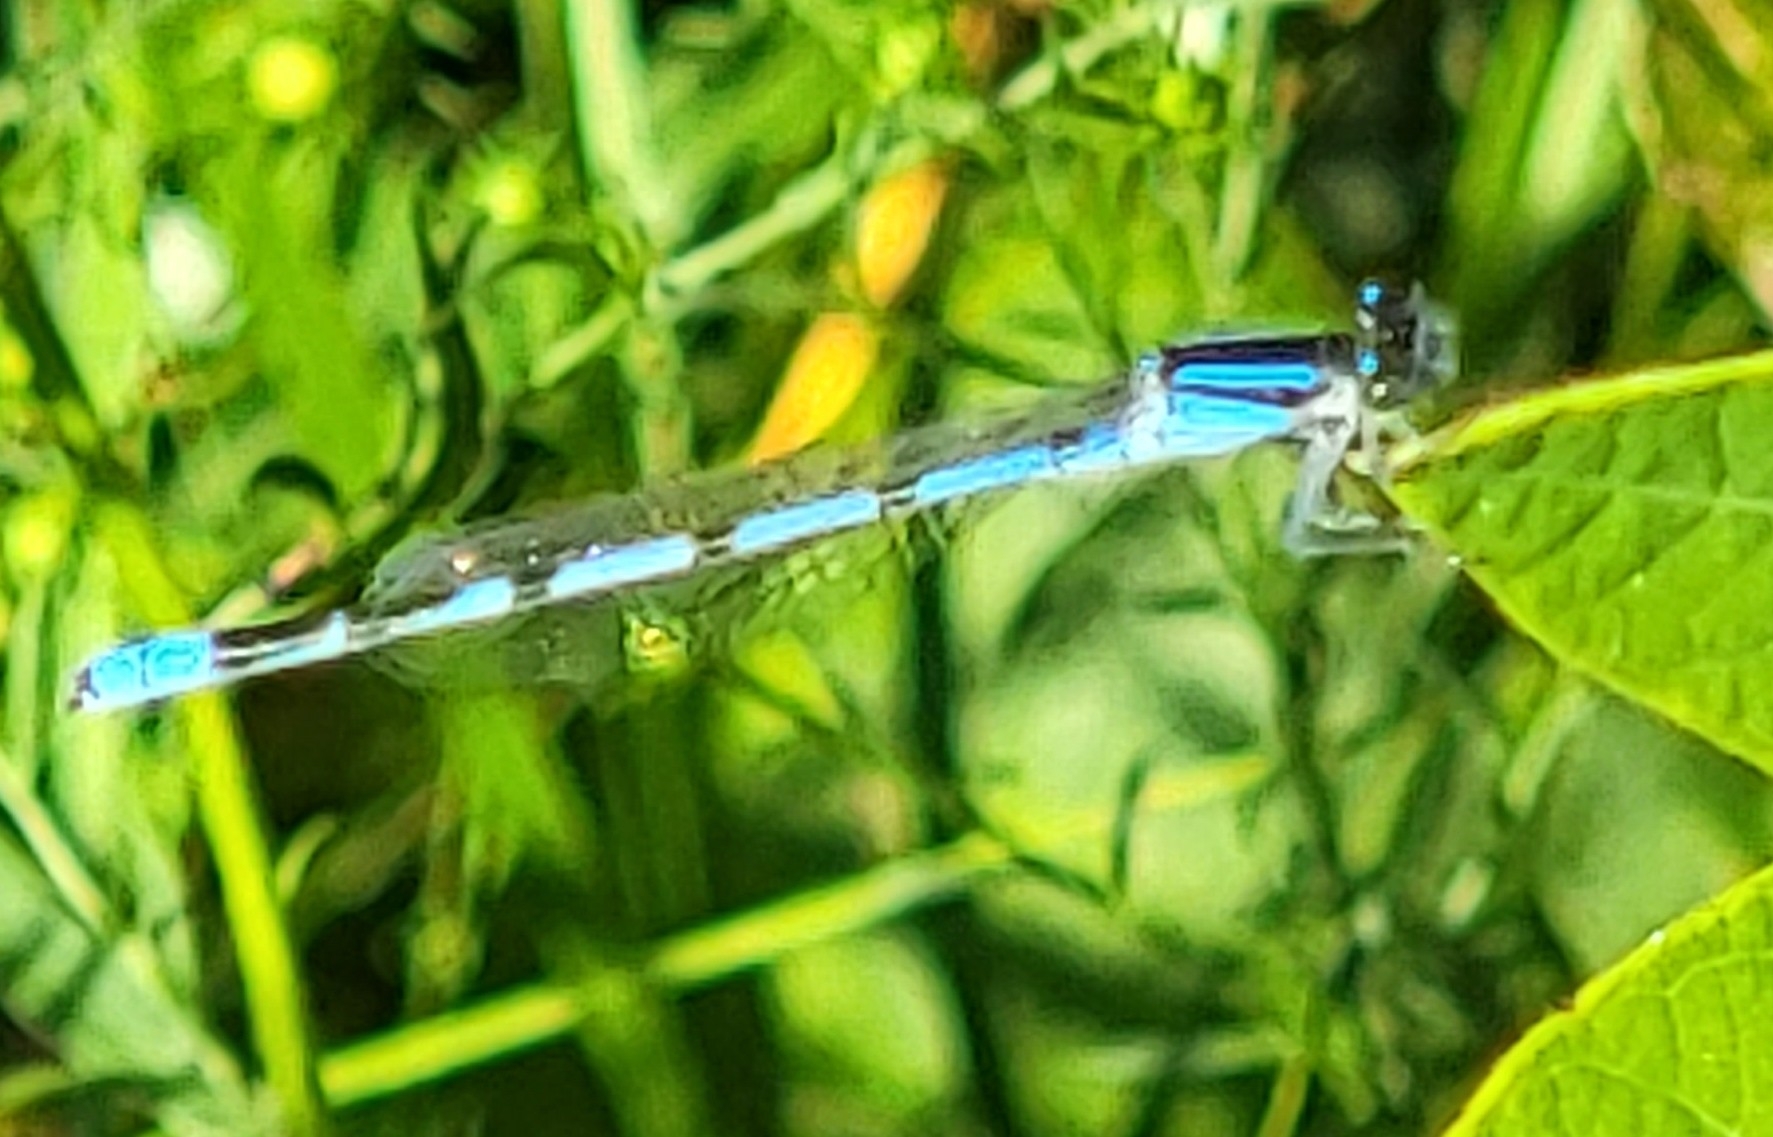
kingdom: Animalia
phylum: Arthropoda
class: Insecta
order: Odonata
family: Coenagrionidae
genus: Enallagma
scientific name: Enallagma civile
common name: Damselfly
